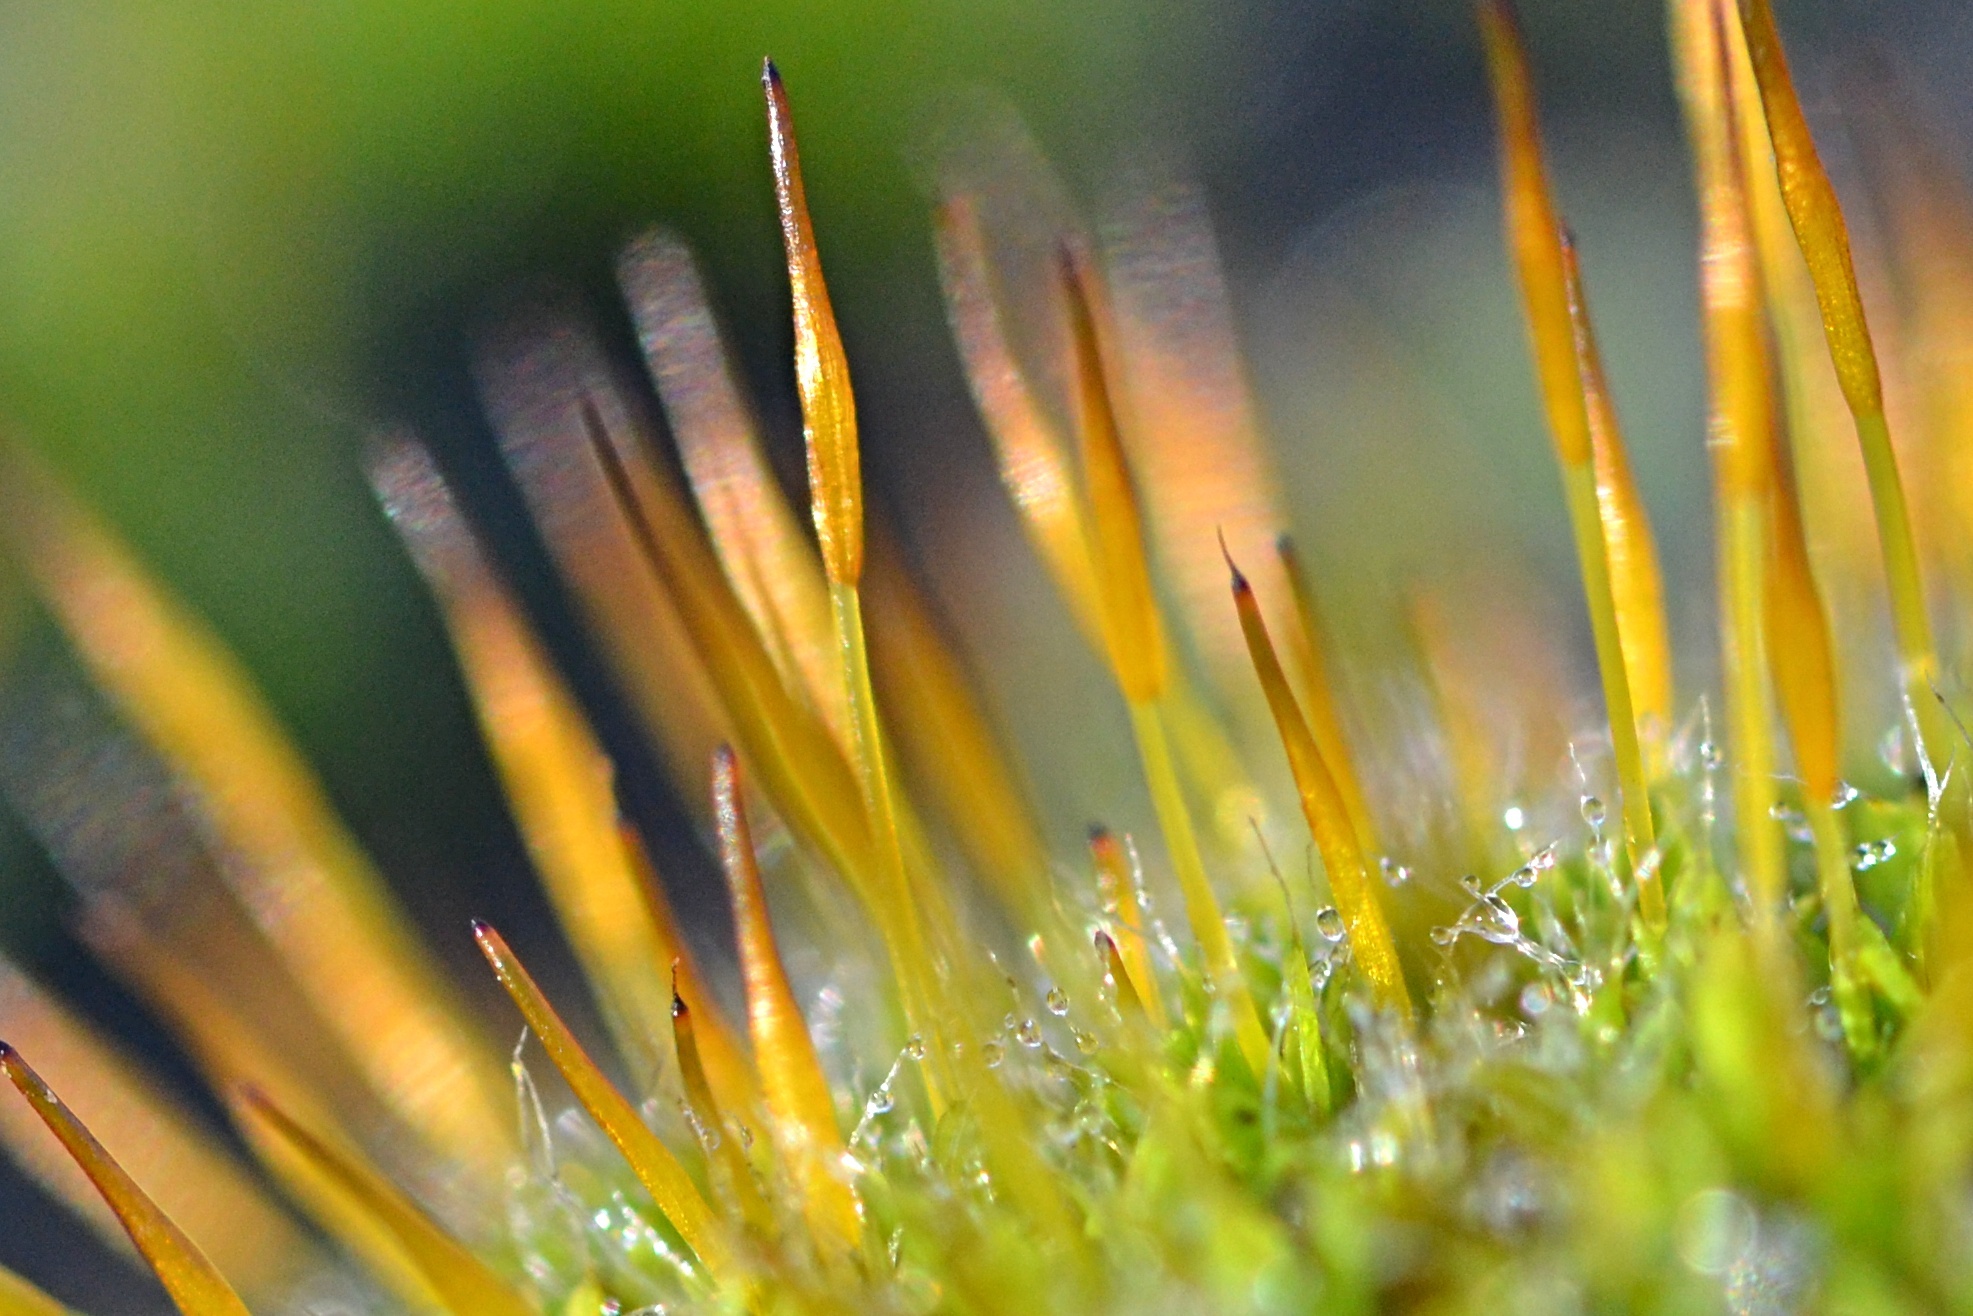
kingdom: Plantae
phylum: Bryophyta
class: Bryopsida
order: Pottiales
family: Pottiaceae
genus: Tortula
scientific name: Tortula muralis
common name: Wall screw-moss
